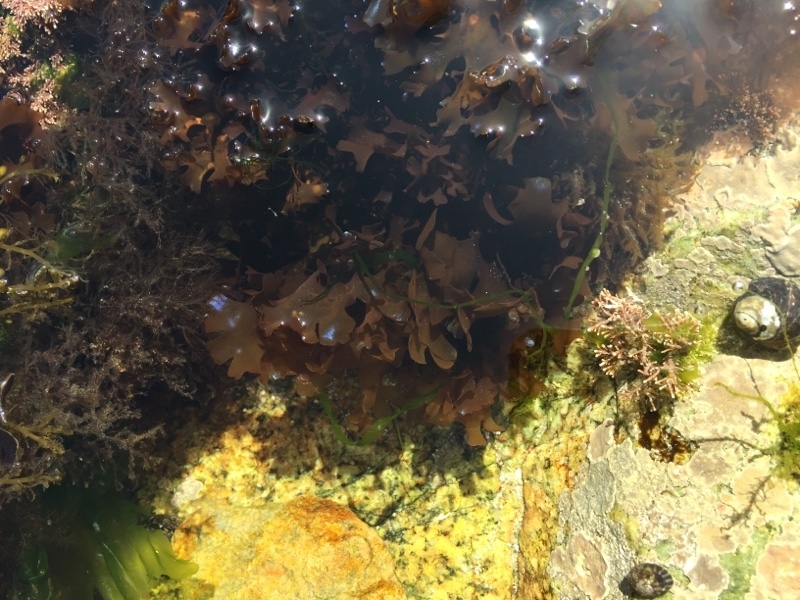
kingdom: Plantae
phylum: Rhodophyta
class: Florideophyceae
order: Gigartinales
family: Gigartinaceae
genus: Chondrus
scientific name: Chondrus crispus
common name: Carrageen
